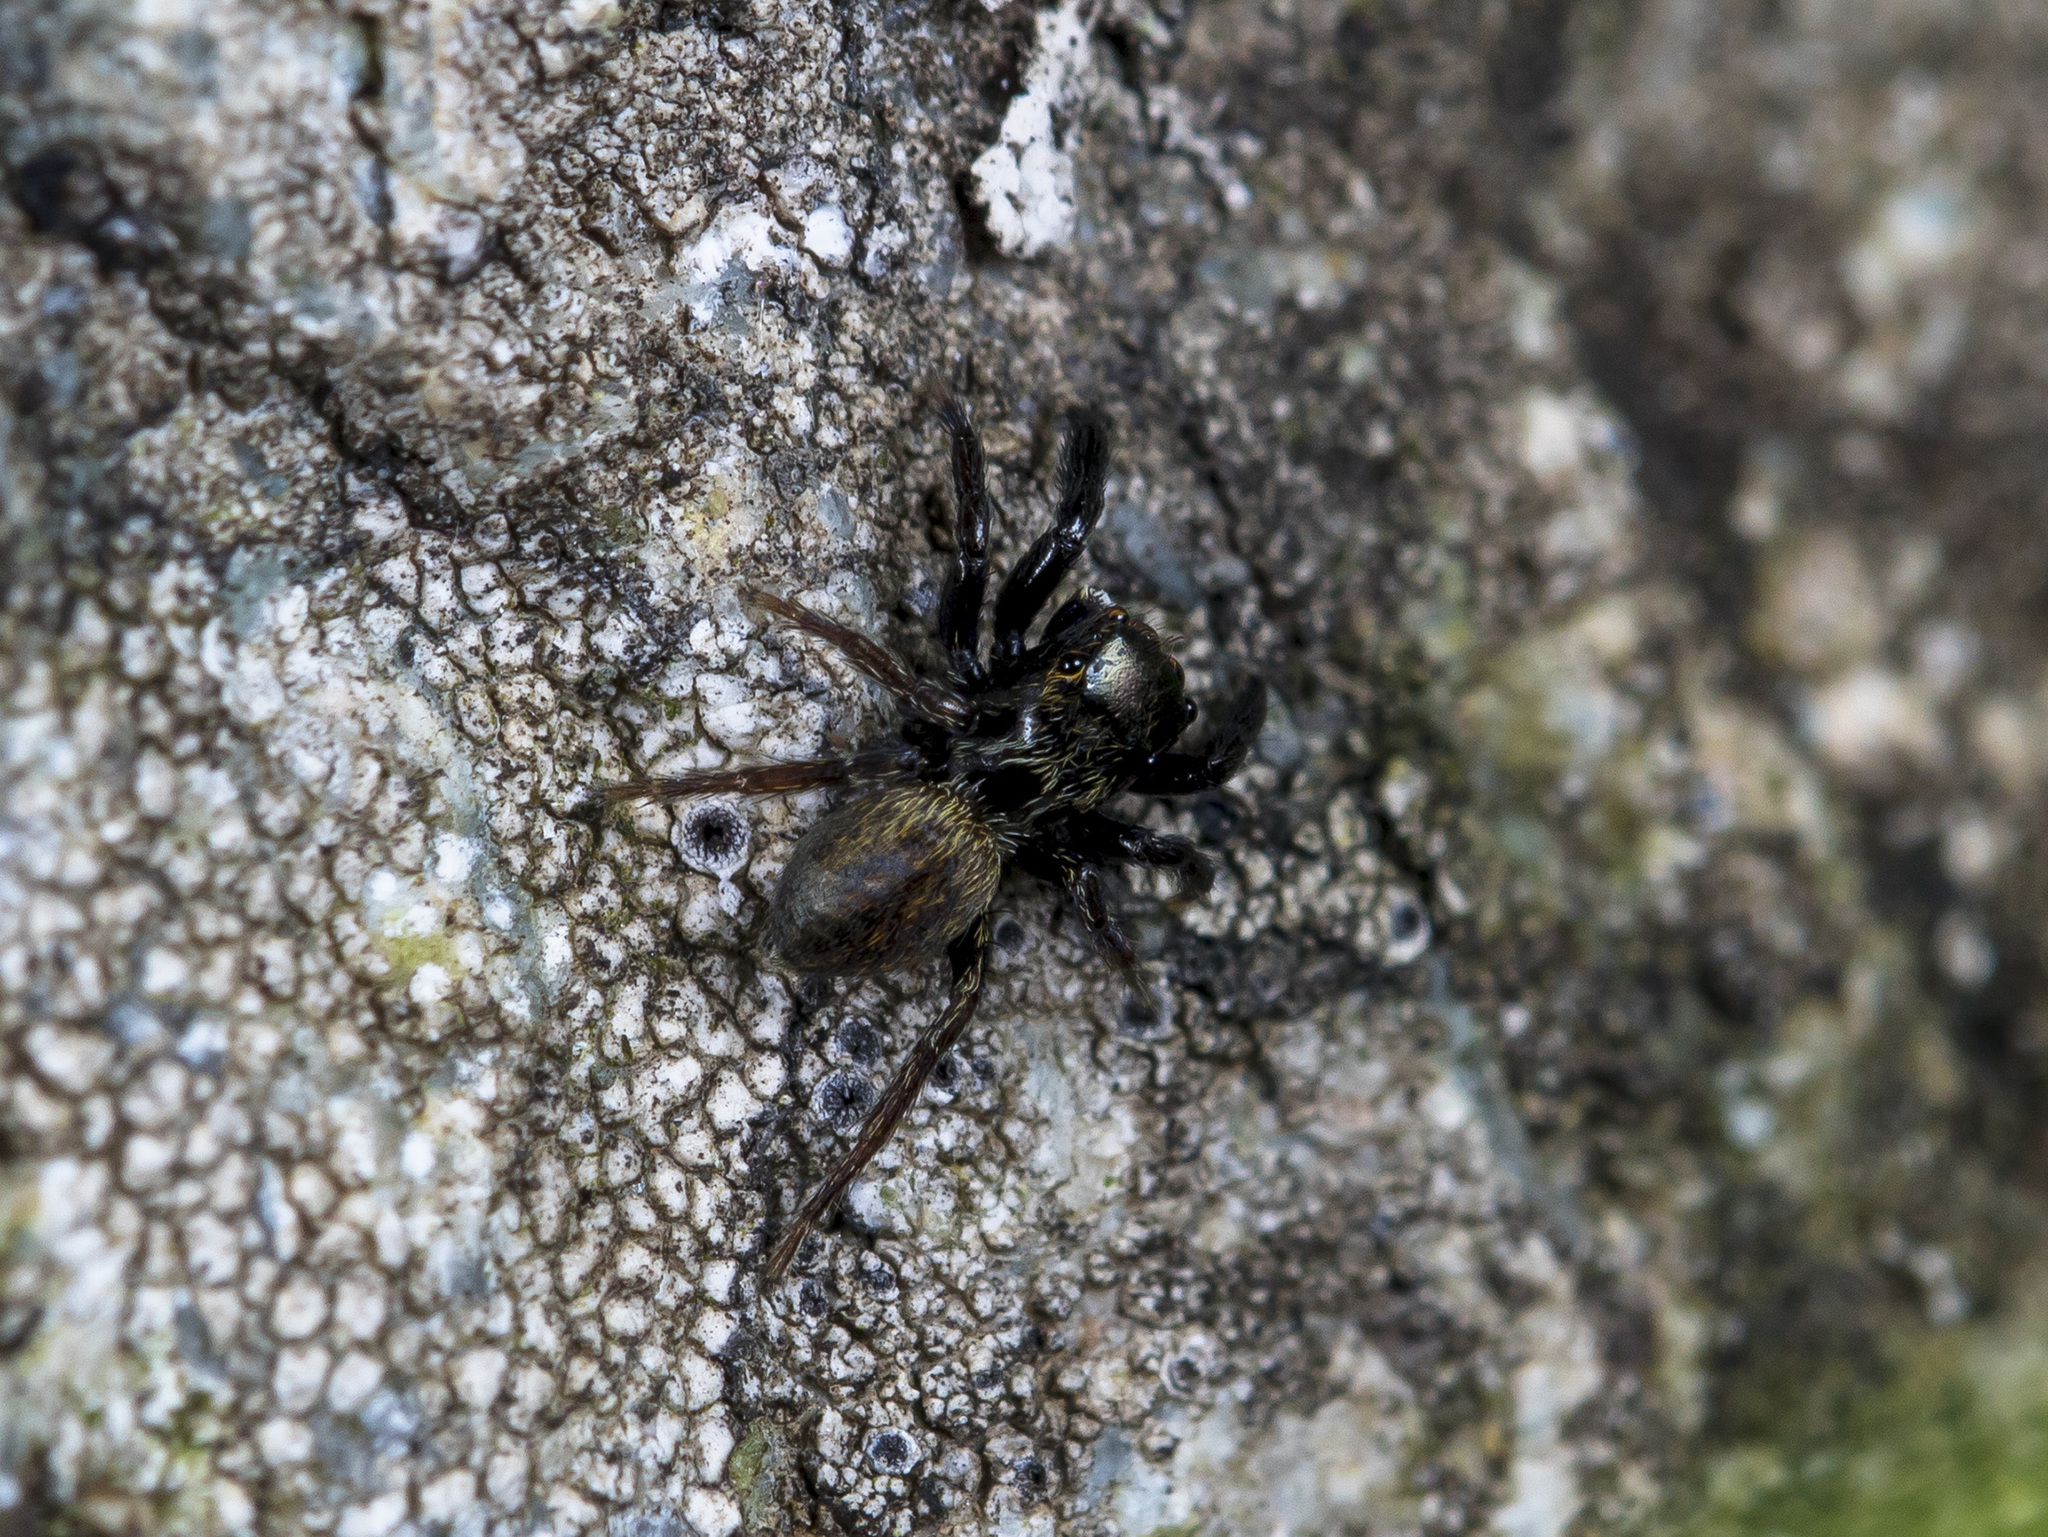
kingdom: Animalia
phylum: Arthropoda
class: Arachnida
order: Araneae
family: Salticidae
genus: Euophrys
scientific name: Euophrys frontalis
